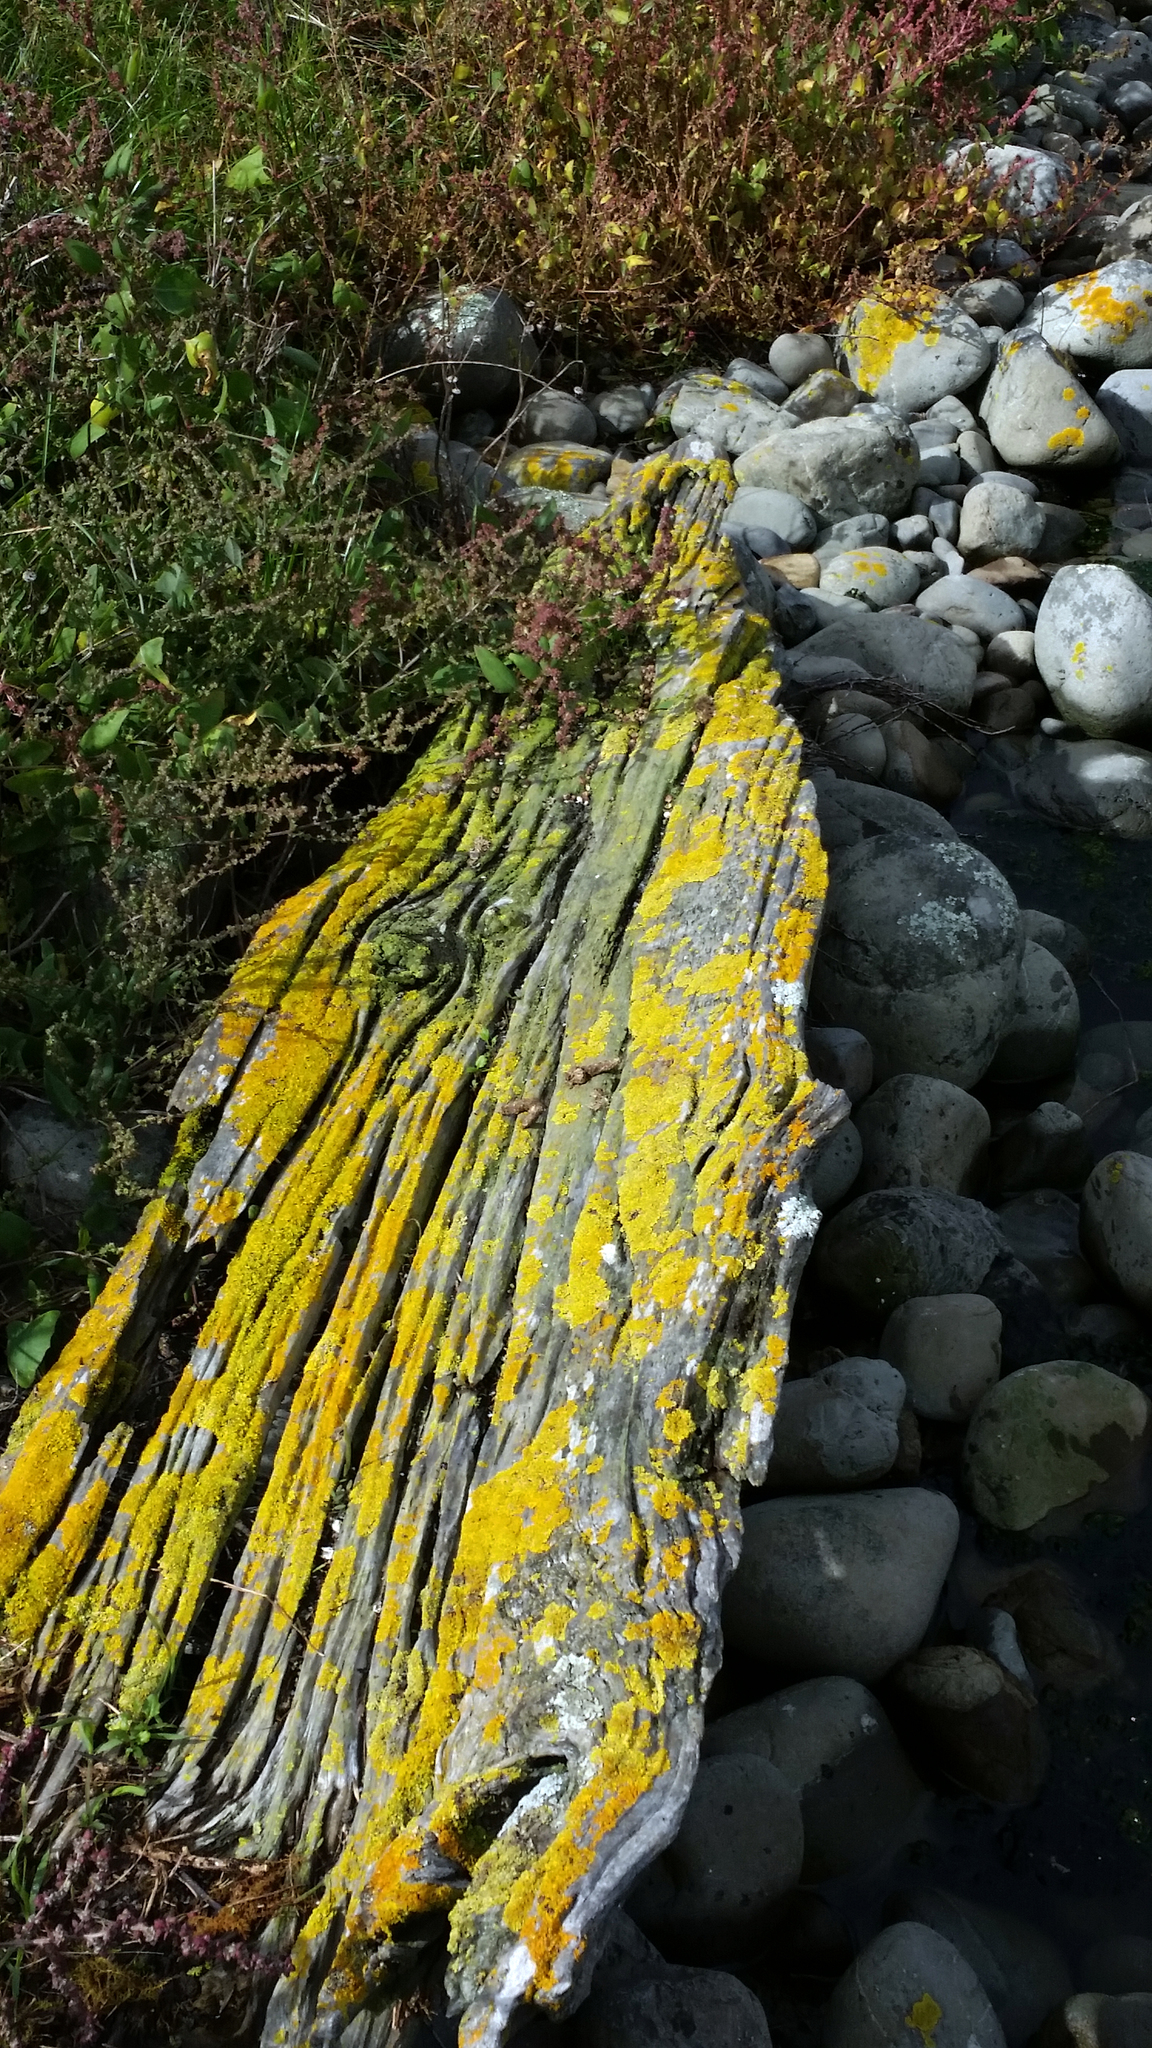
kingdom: Fungi
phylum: Ascomycota
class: Lecanoromycetes
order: Teloschistales
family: Teloschistaceae
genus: Xanthoria
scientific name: Xanthoria parietina
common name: Common orange lichen
